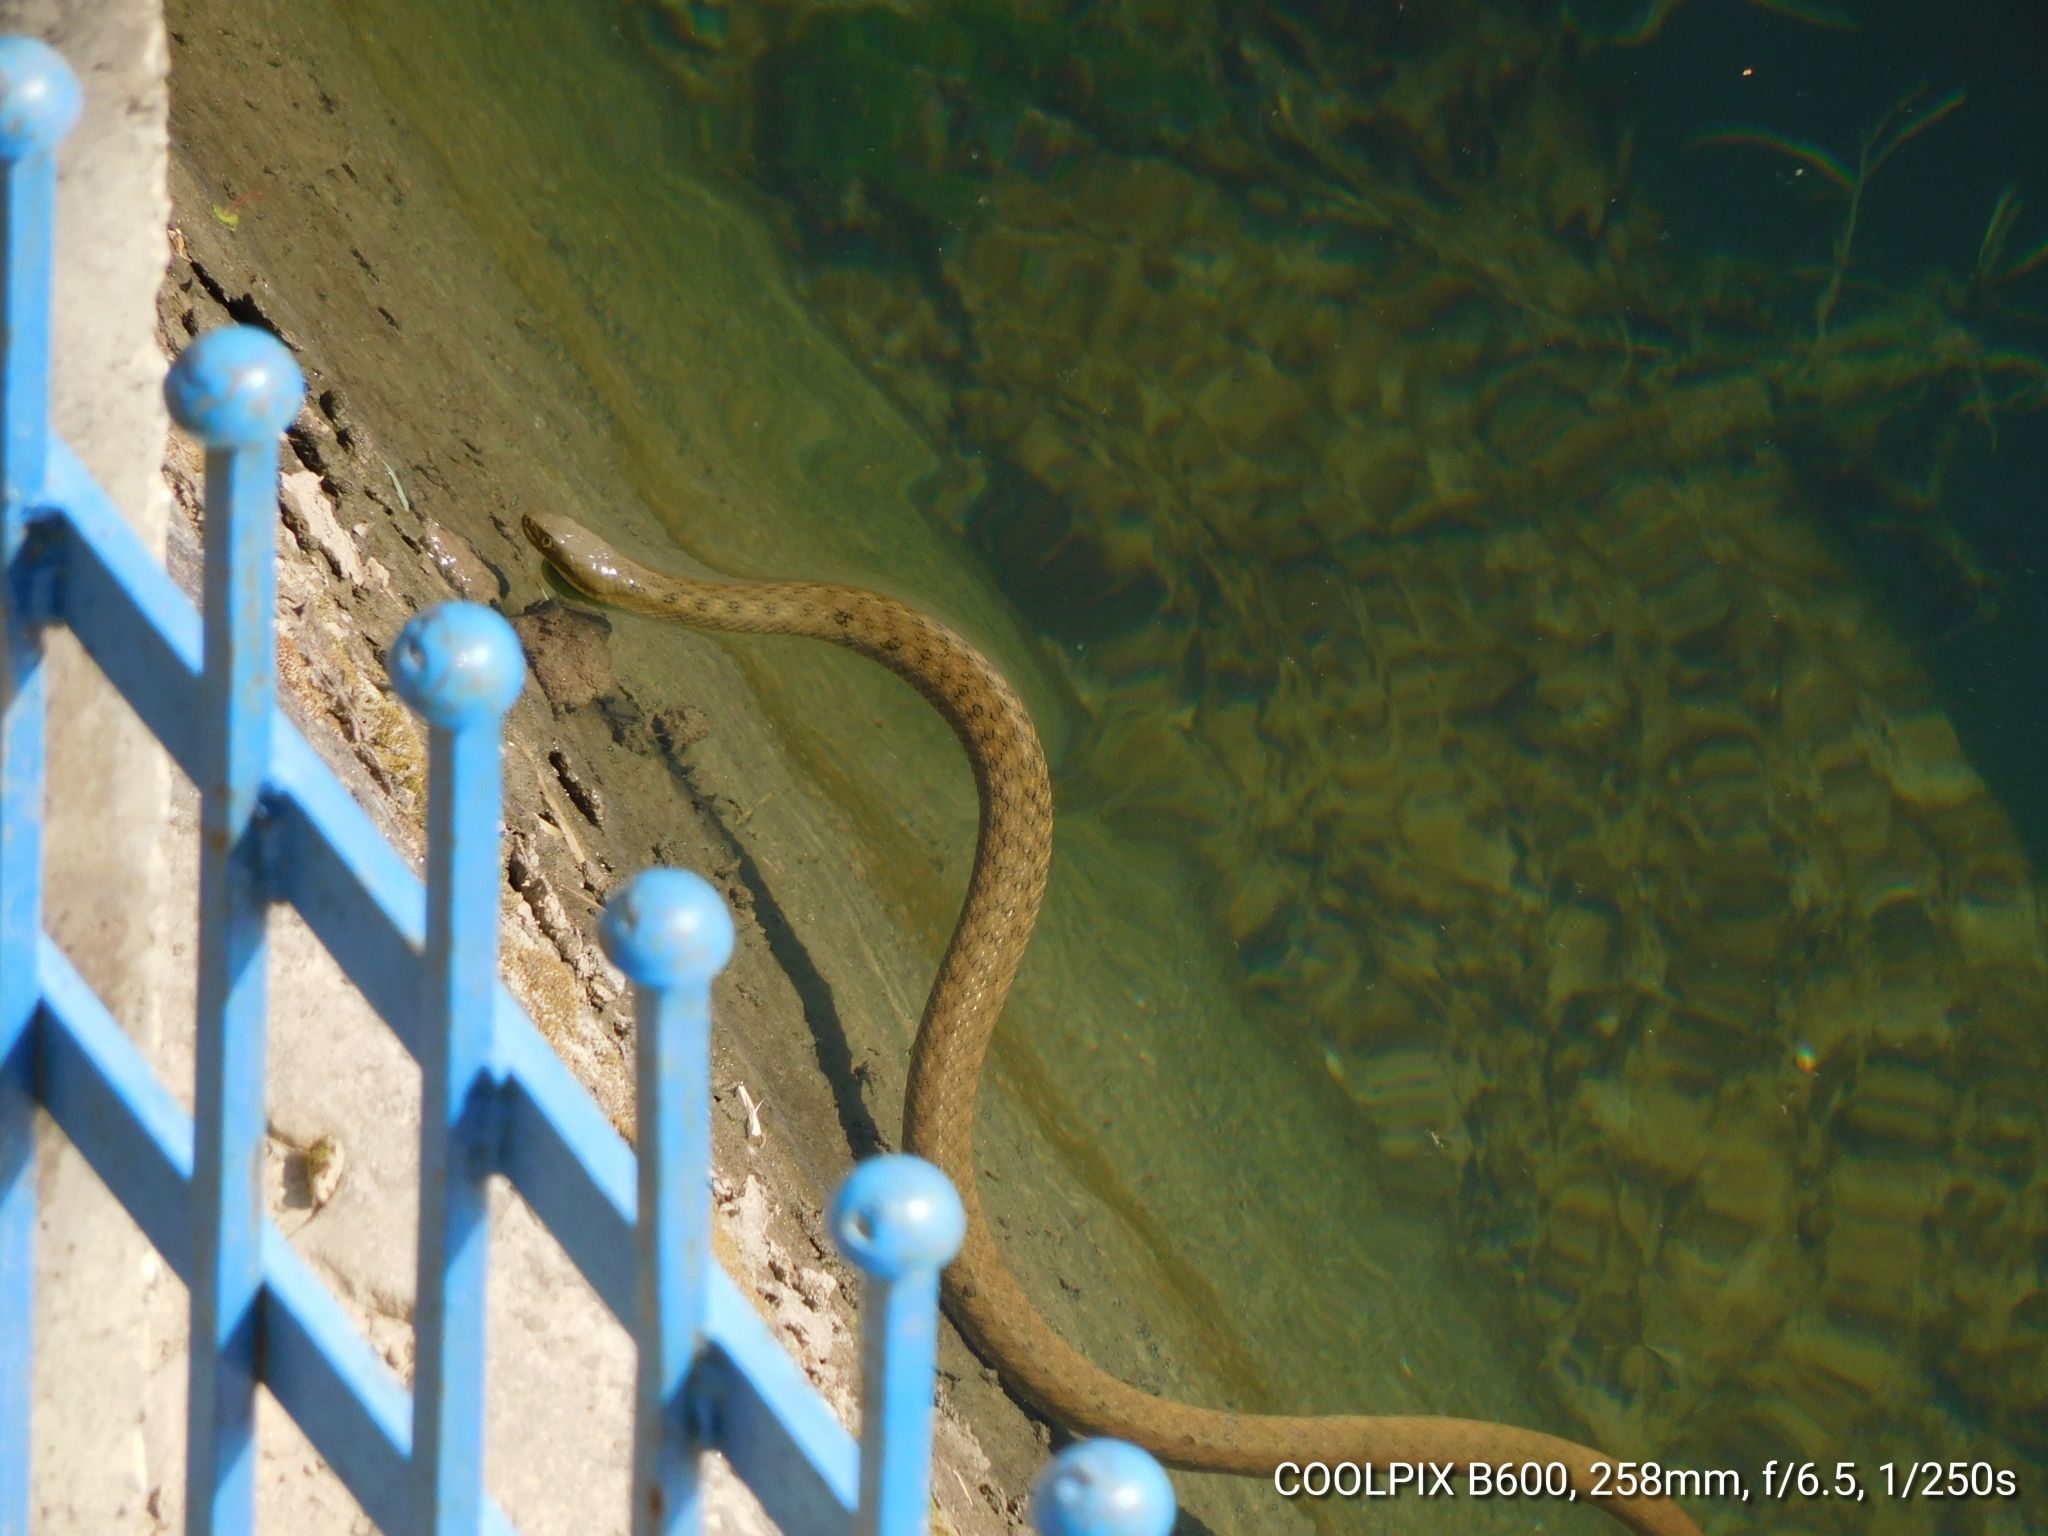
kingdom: Animalia
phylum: Chordata
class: Squamata
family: Colubridae
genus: Fowlea
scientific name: Fowlea piscator
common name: Asiatic water snake
